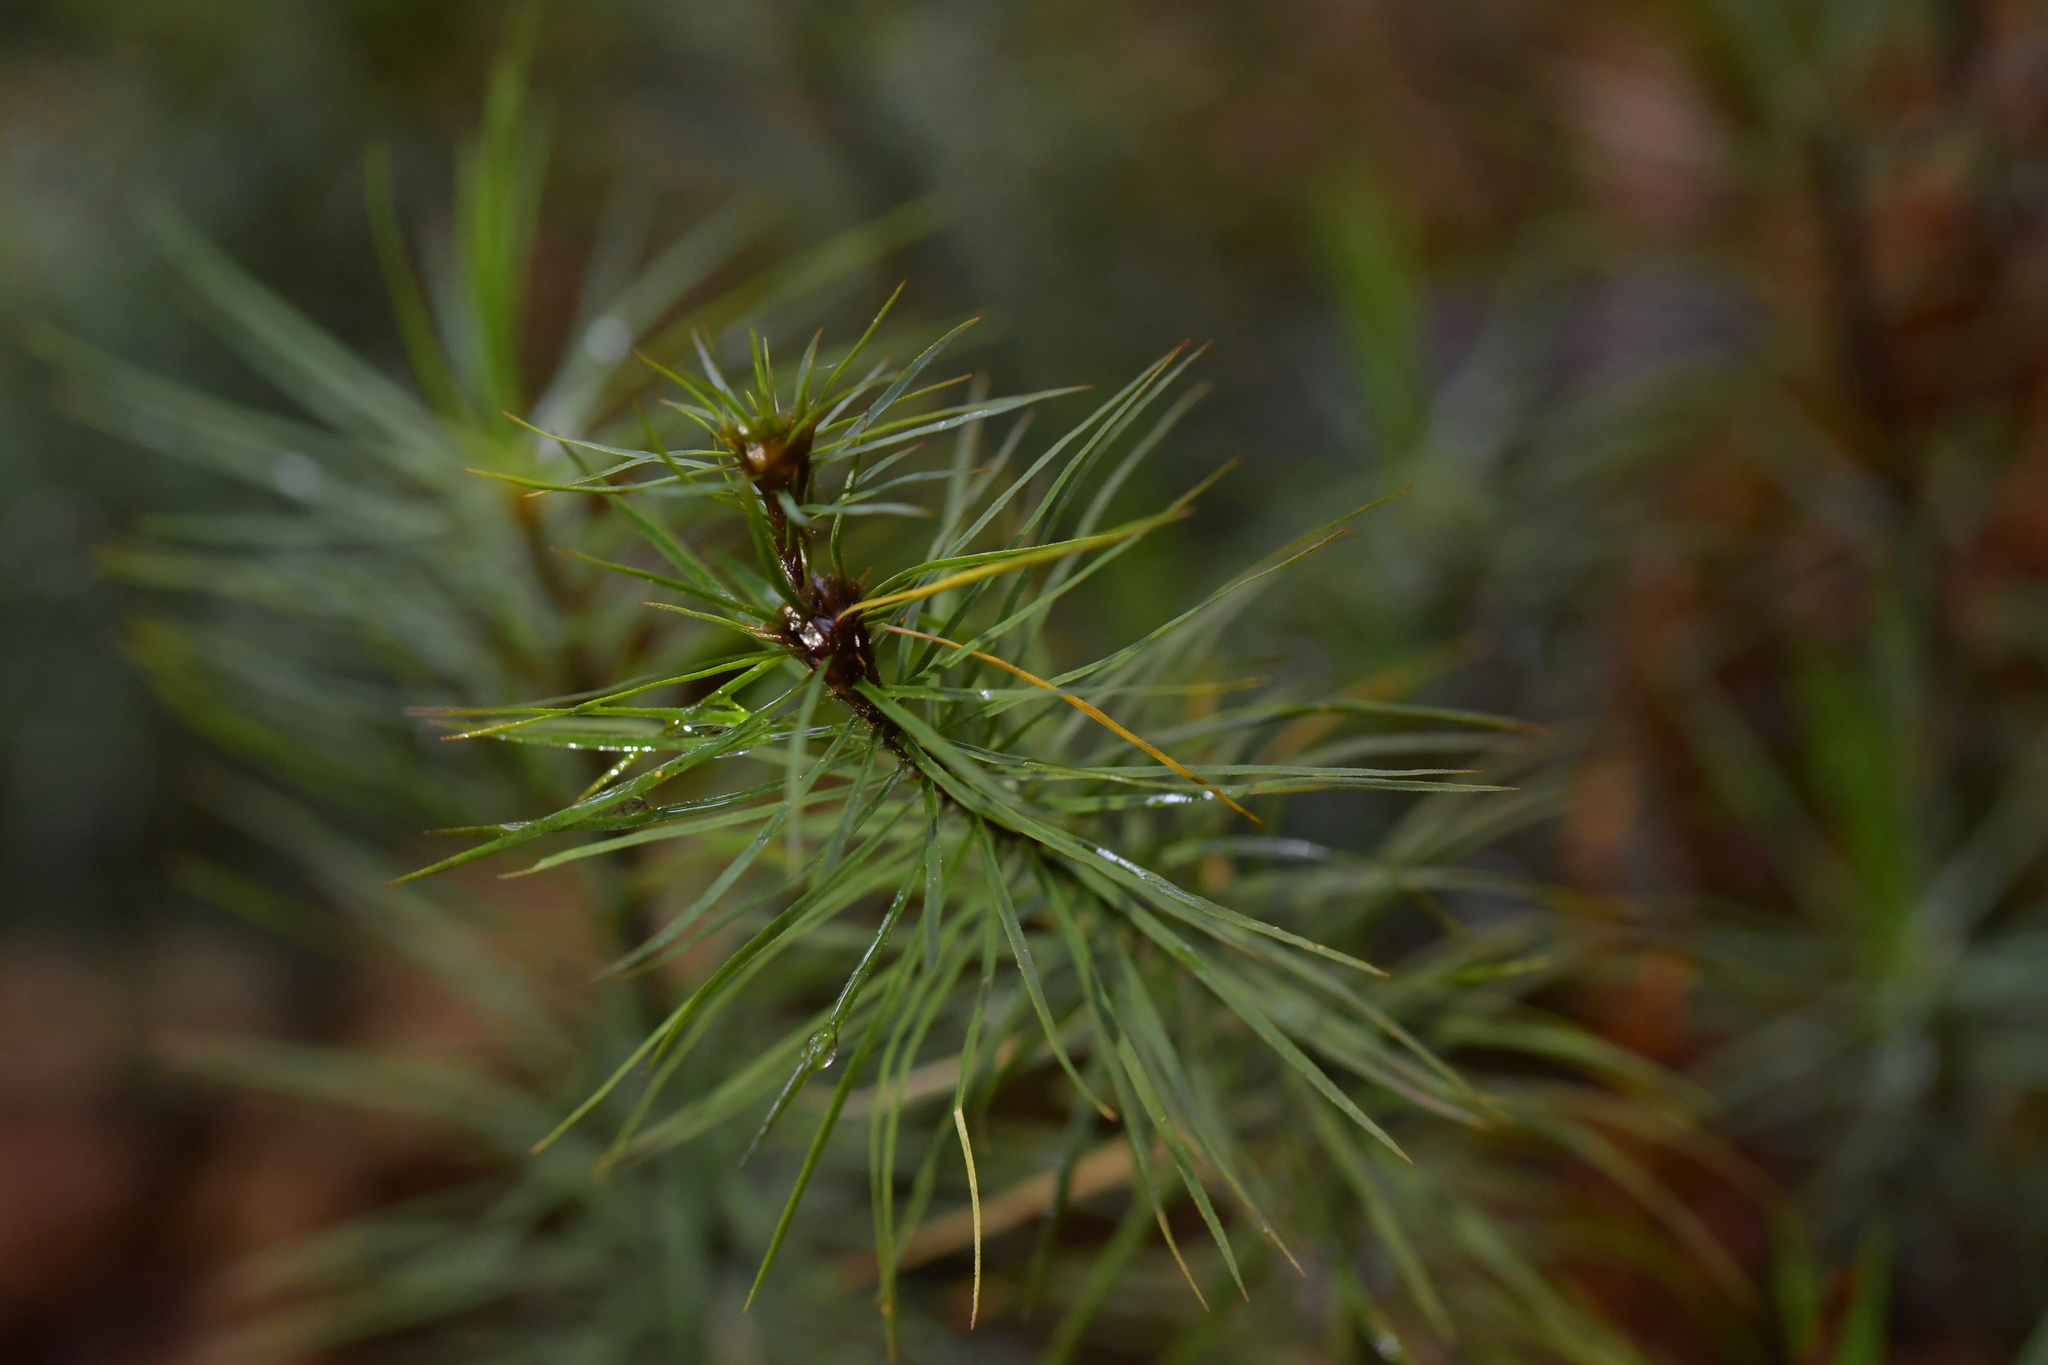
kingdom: Plantae
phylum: Bryophyta
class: Polytrichopsida
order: Polytrichales
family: Polytrichaceae
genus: Dawsonia
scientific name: Dawsonia superba
